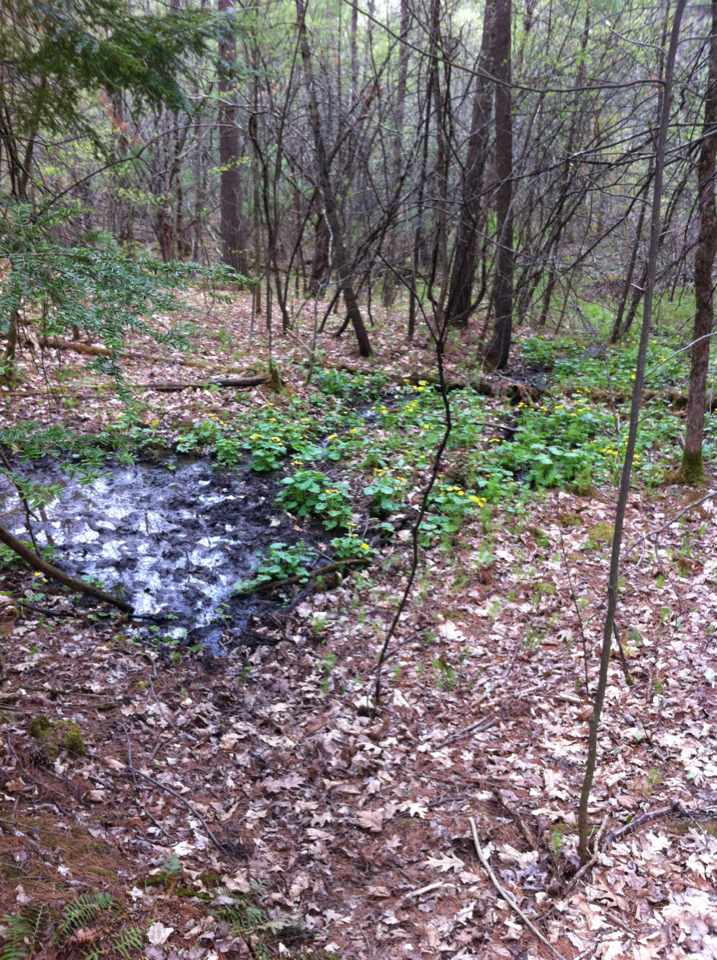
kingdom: Plantae
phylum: Tracheophyta
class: Magnoliopsida
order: Ranunculales
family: Ranunculaceae
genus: Caltha
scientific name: Caltha palustris
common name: Marsh marigold
